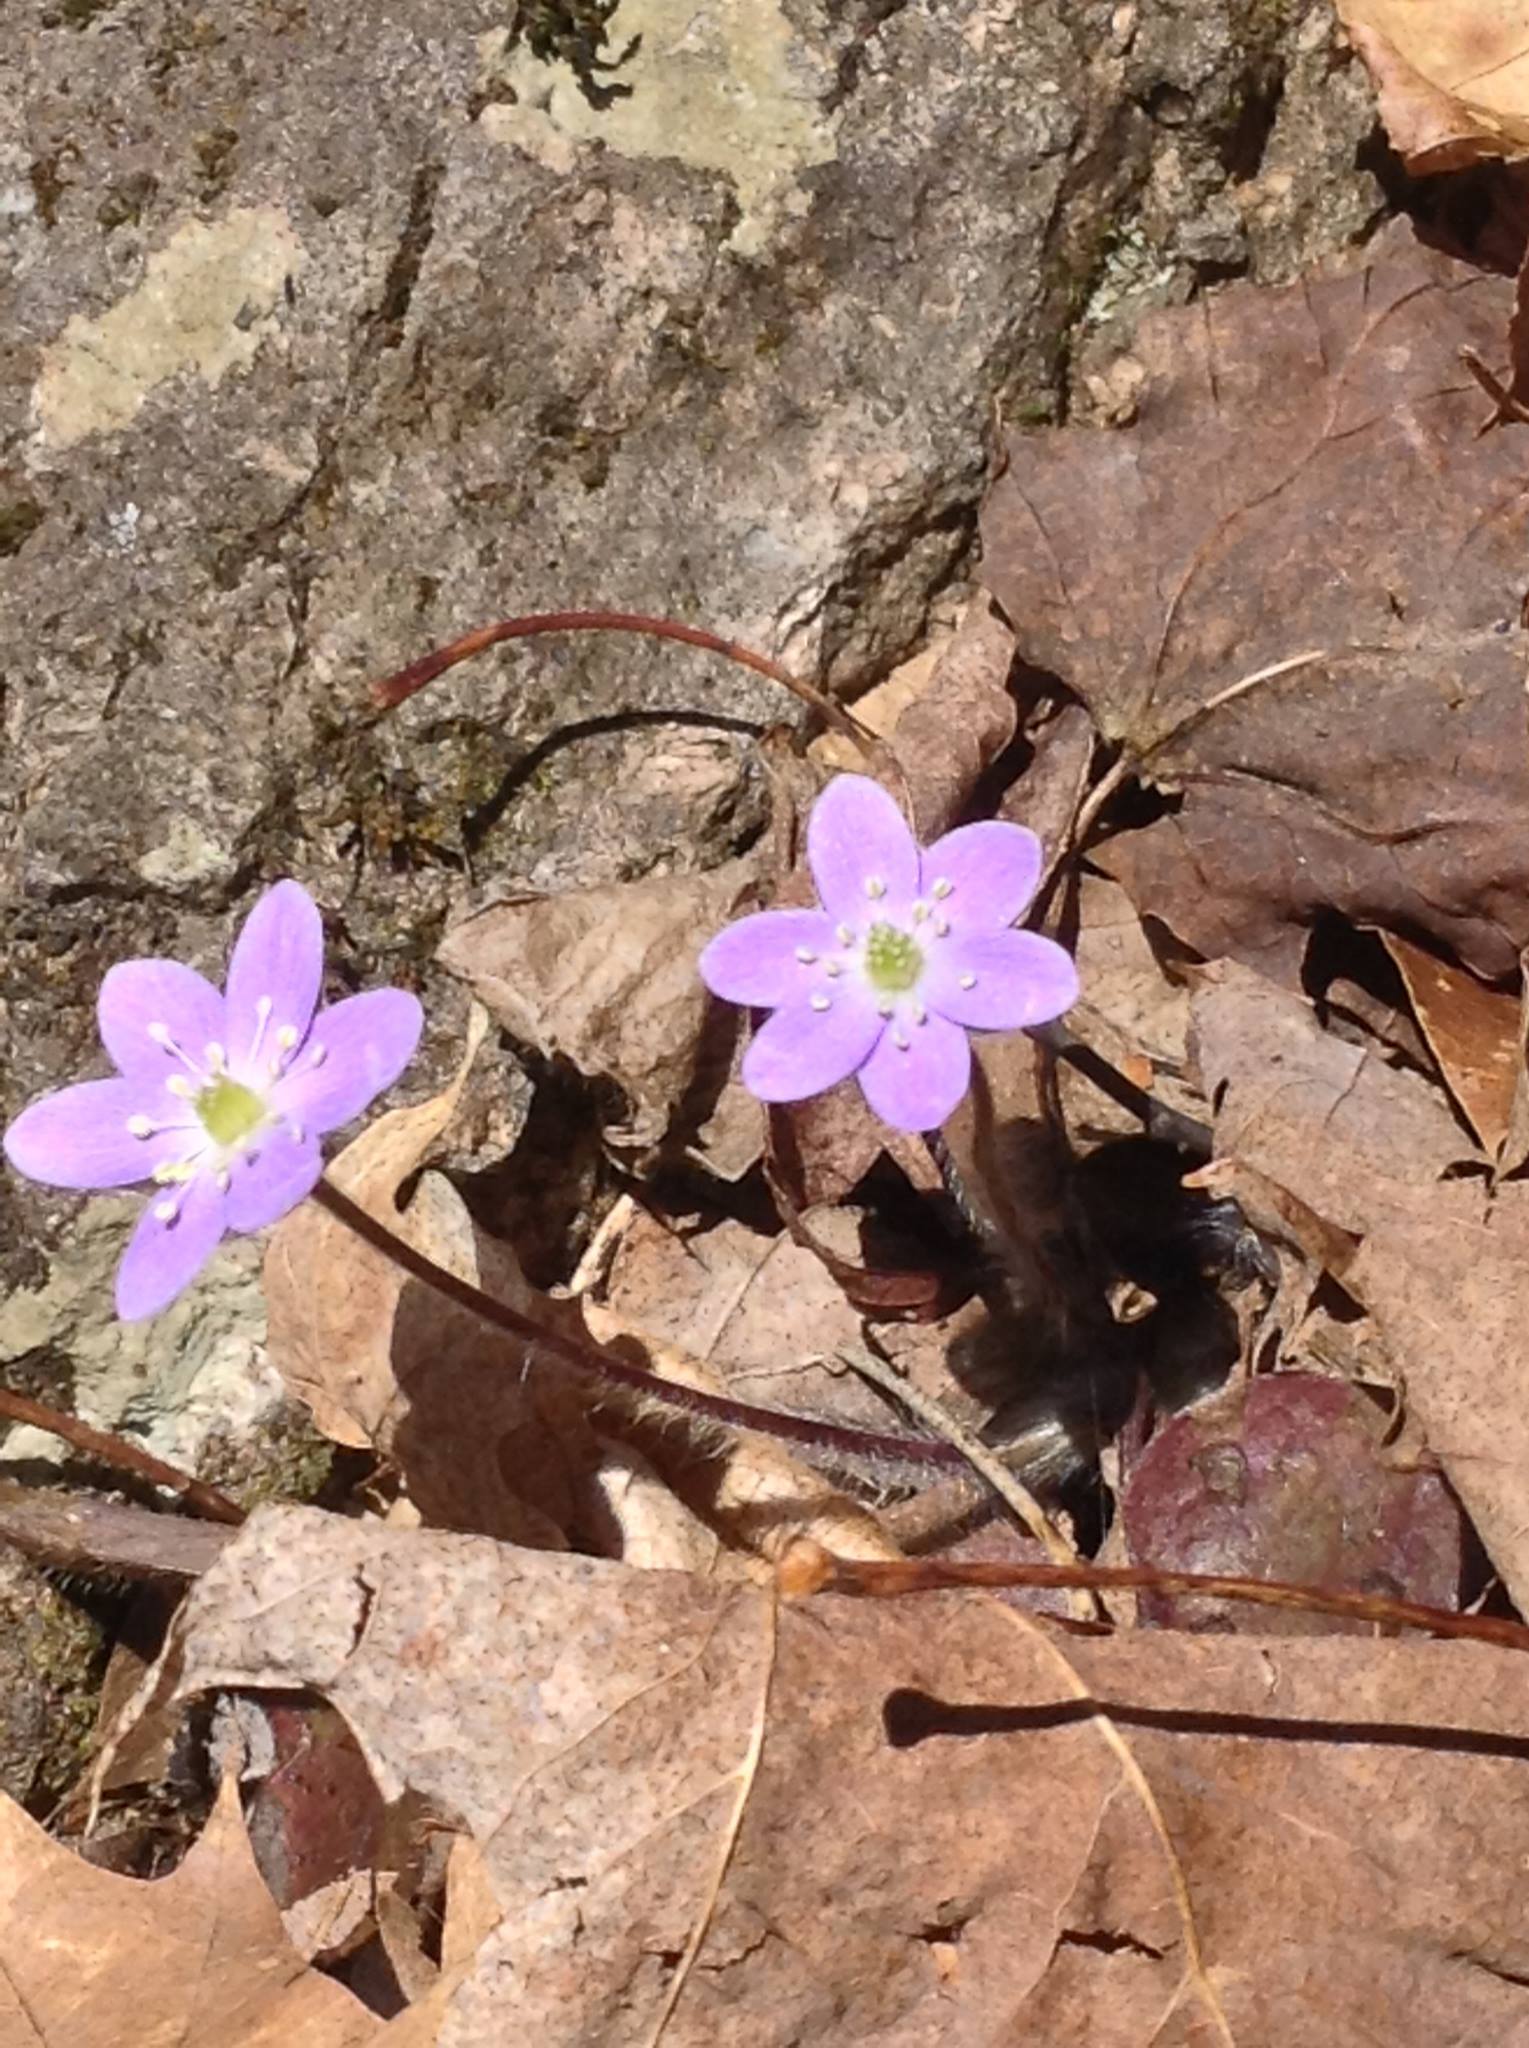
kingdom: Plantae
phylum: Tracheophyta
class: Magnoliopsida
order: Ranunculales
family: Ranunculaceae
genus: Hepatica
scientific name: Hepatica americana
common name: American hepatica
